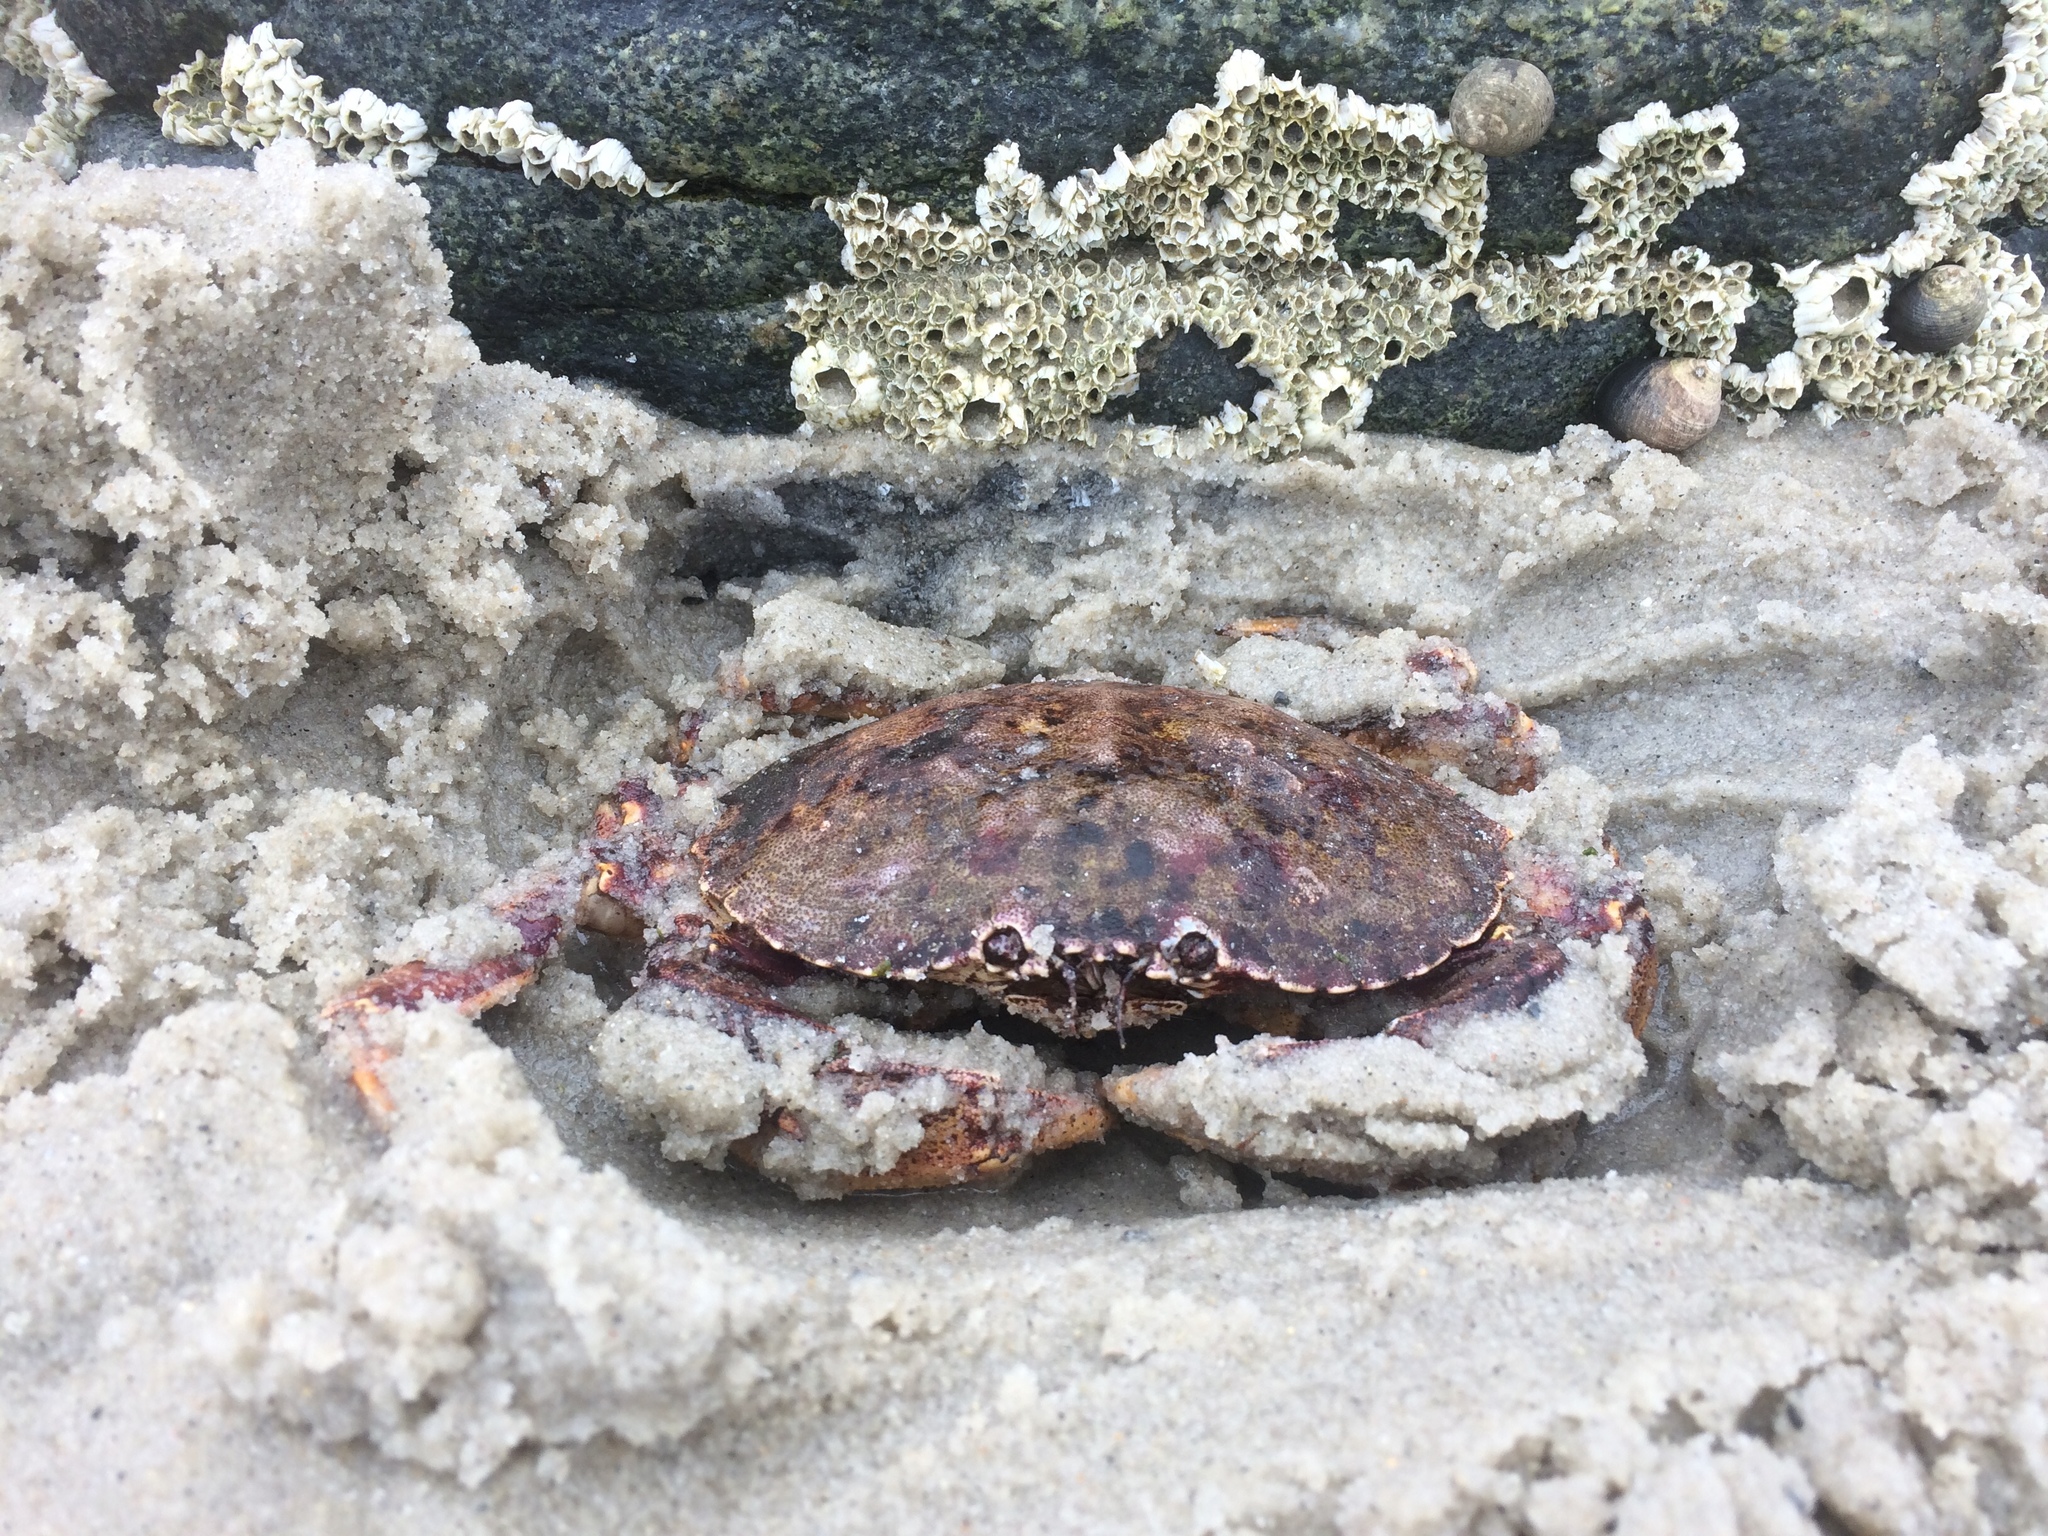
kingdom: Animalia
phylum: Arthropoda
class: Malacostraca
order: Decapoda
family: Cancridae
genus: Cancer
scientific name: Cancer irroratus
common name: Atlantic rock crab
